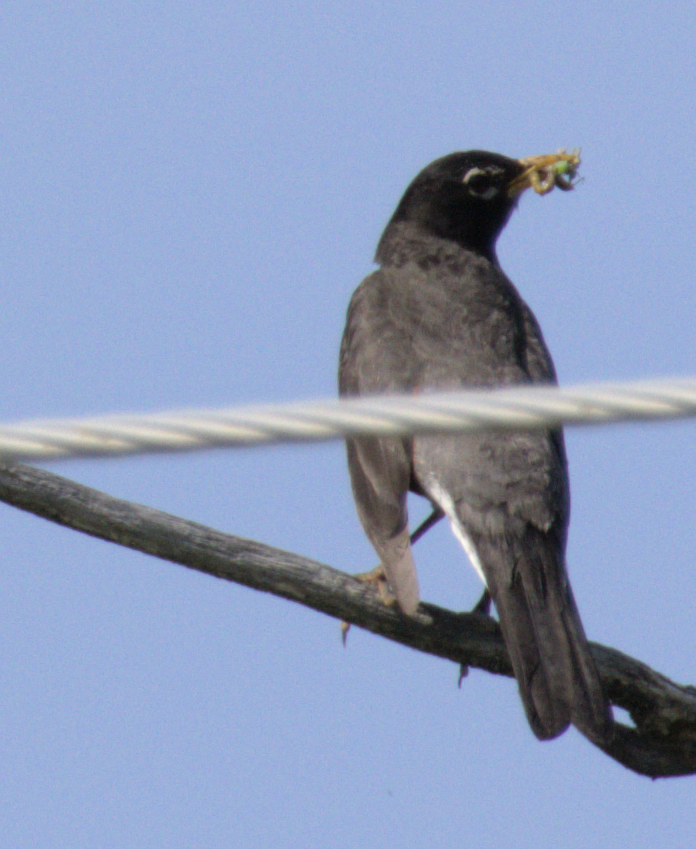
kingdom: Animalia
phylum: Chordata
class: Aves
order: Passeriformes
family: Turdidae
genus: Turdus
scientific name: Turdus migratorius
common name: American robin
